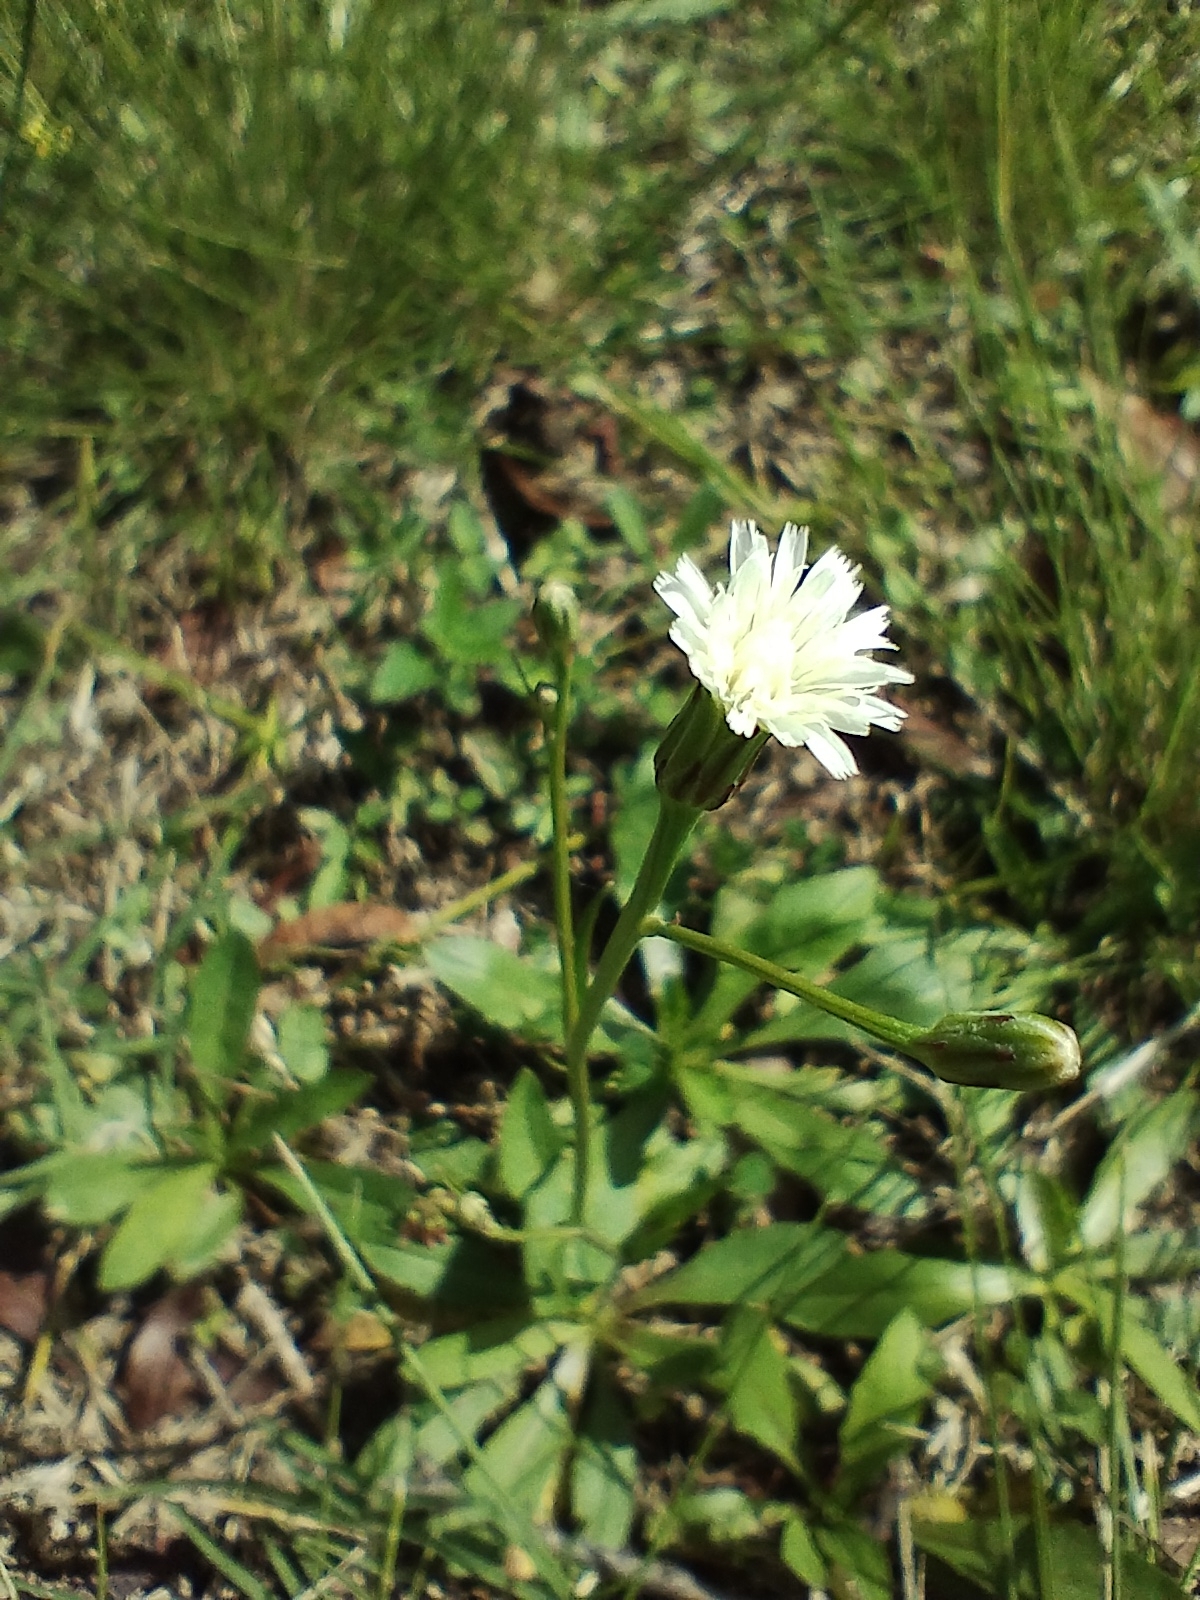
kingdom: Plantae
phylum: Tracheophyta
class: Magnoliopsida
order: Asterales
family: Asteraceae
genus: Hypochaeris
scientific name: Hypochaeris albiflora
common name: White flatweed
